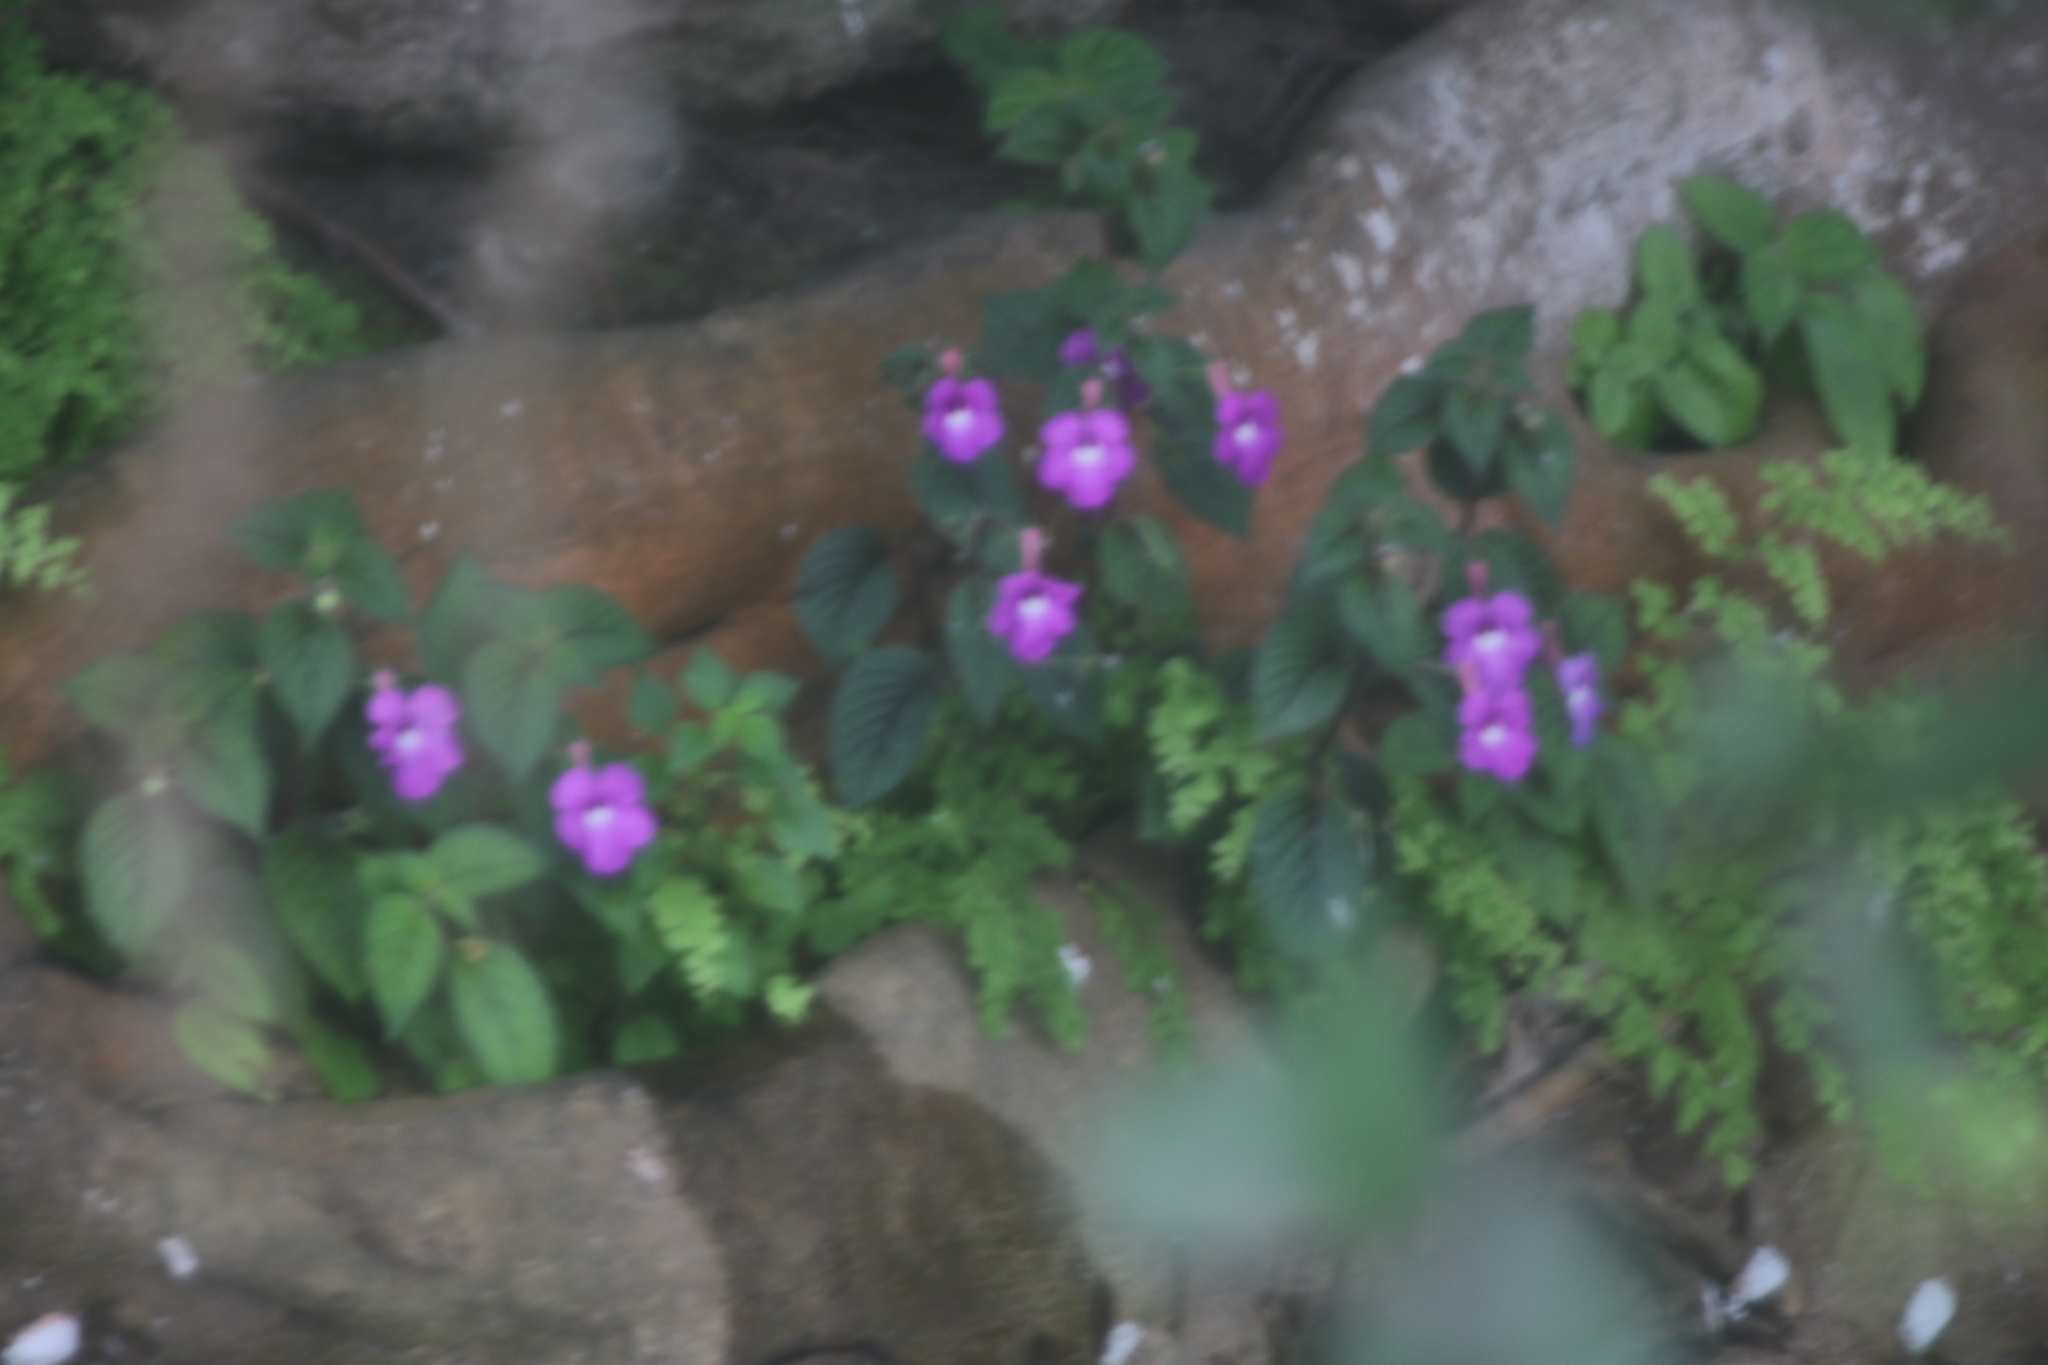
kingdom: Plantae
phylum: Tracheophyta
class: Magnoliopsida
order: Lamiales
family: Gesneriaceae
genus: Achimenes
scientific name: Achimenes grandiflora
